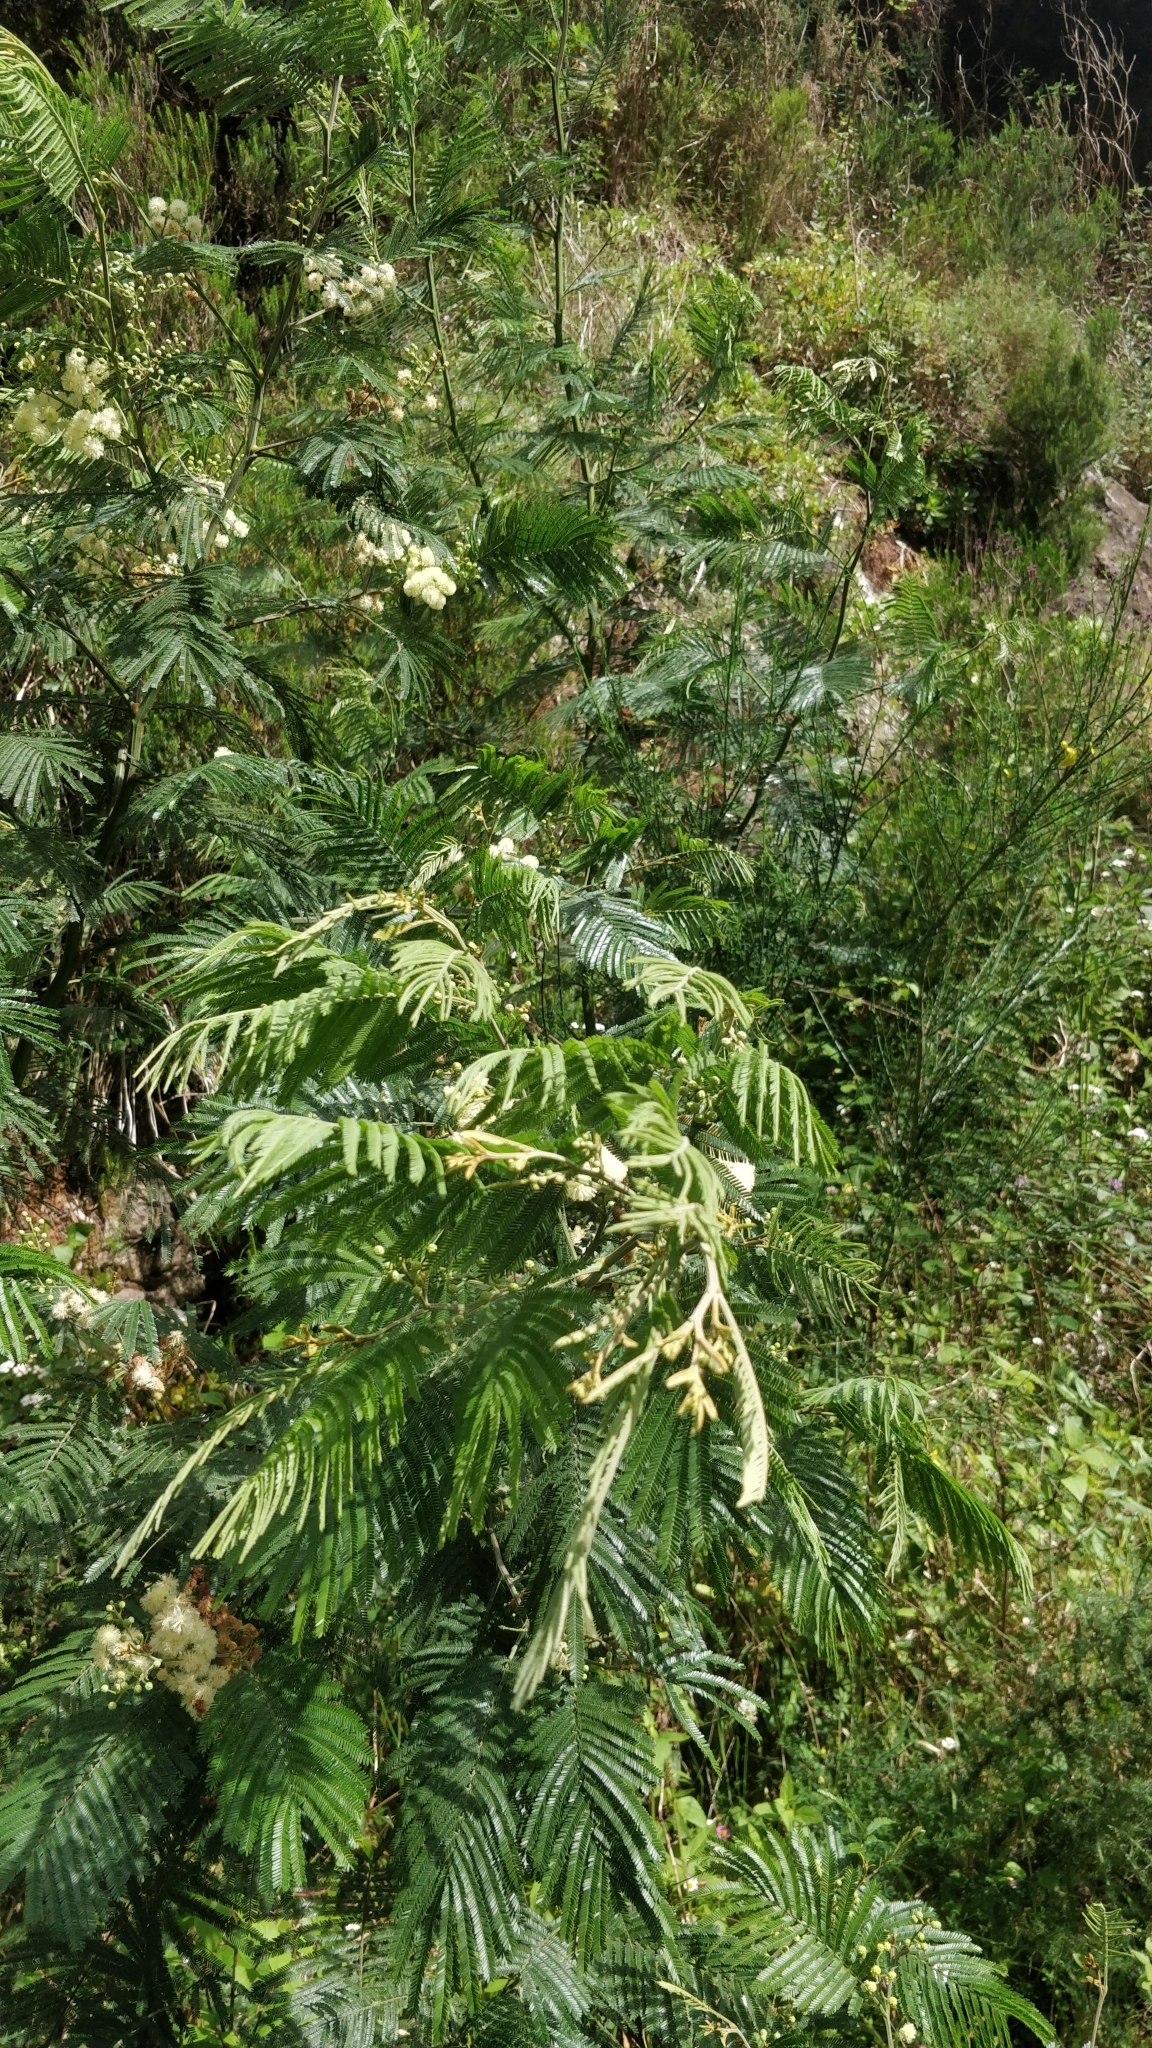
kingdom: Plantae
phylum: Tracheophyta
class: Magnoliopsida
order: Fabales
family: Fabaceae
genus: Acacia
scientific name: Acacia mearnsii
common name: Black wattle
